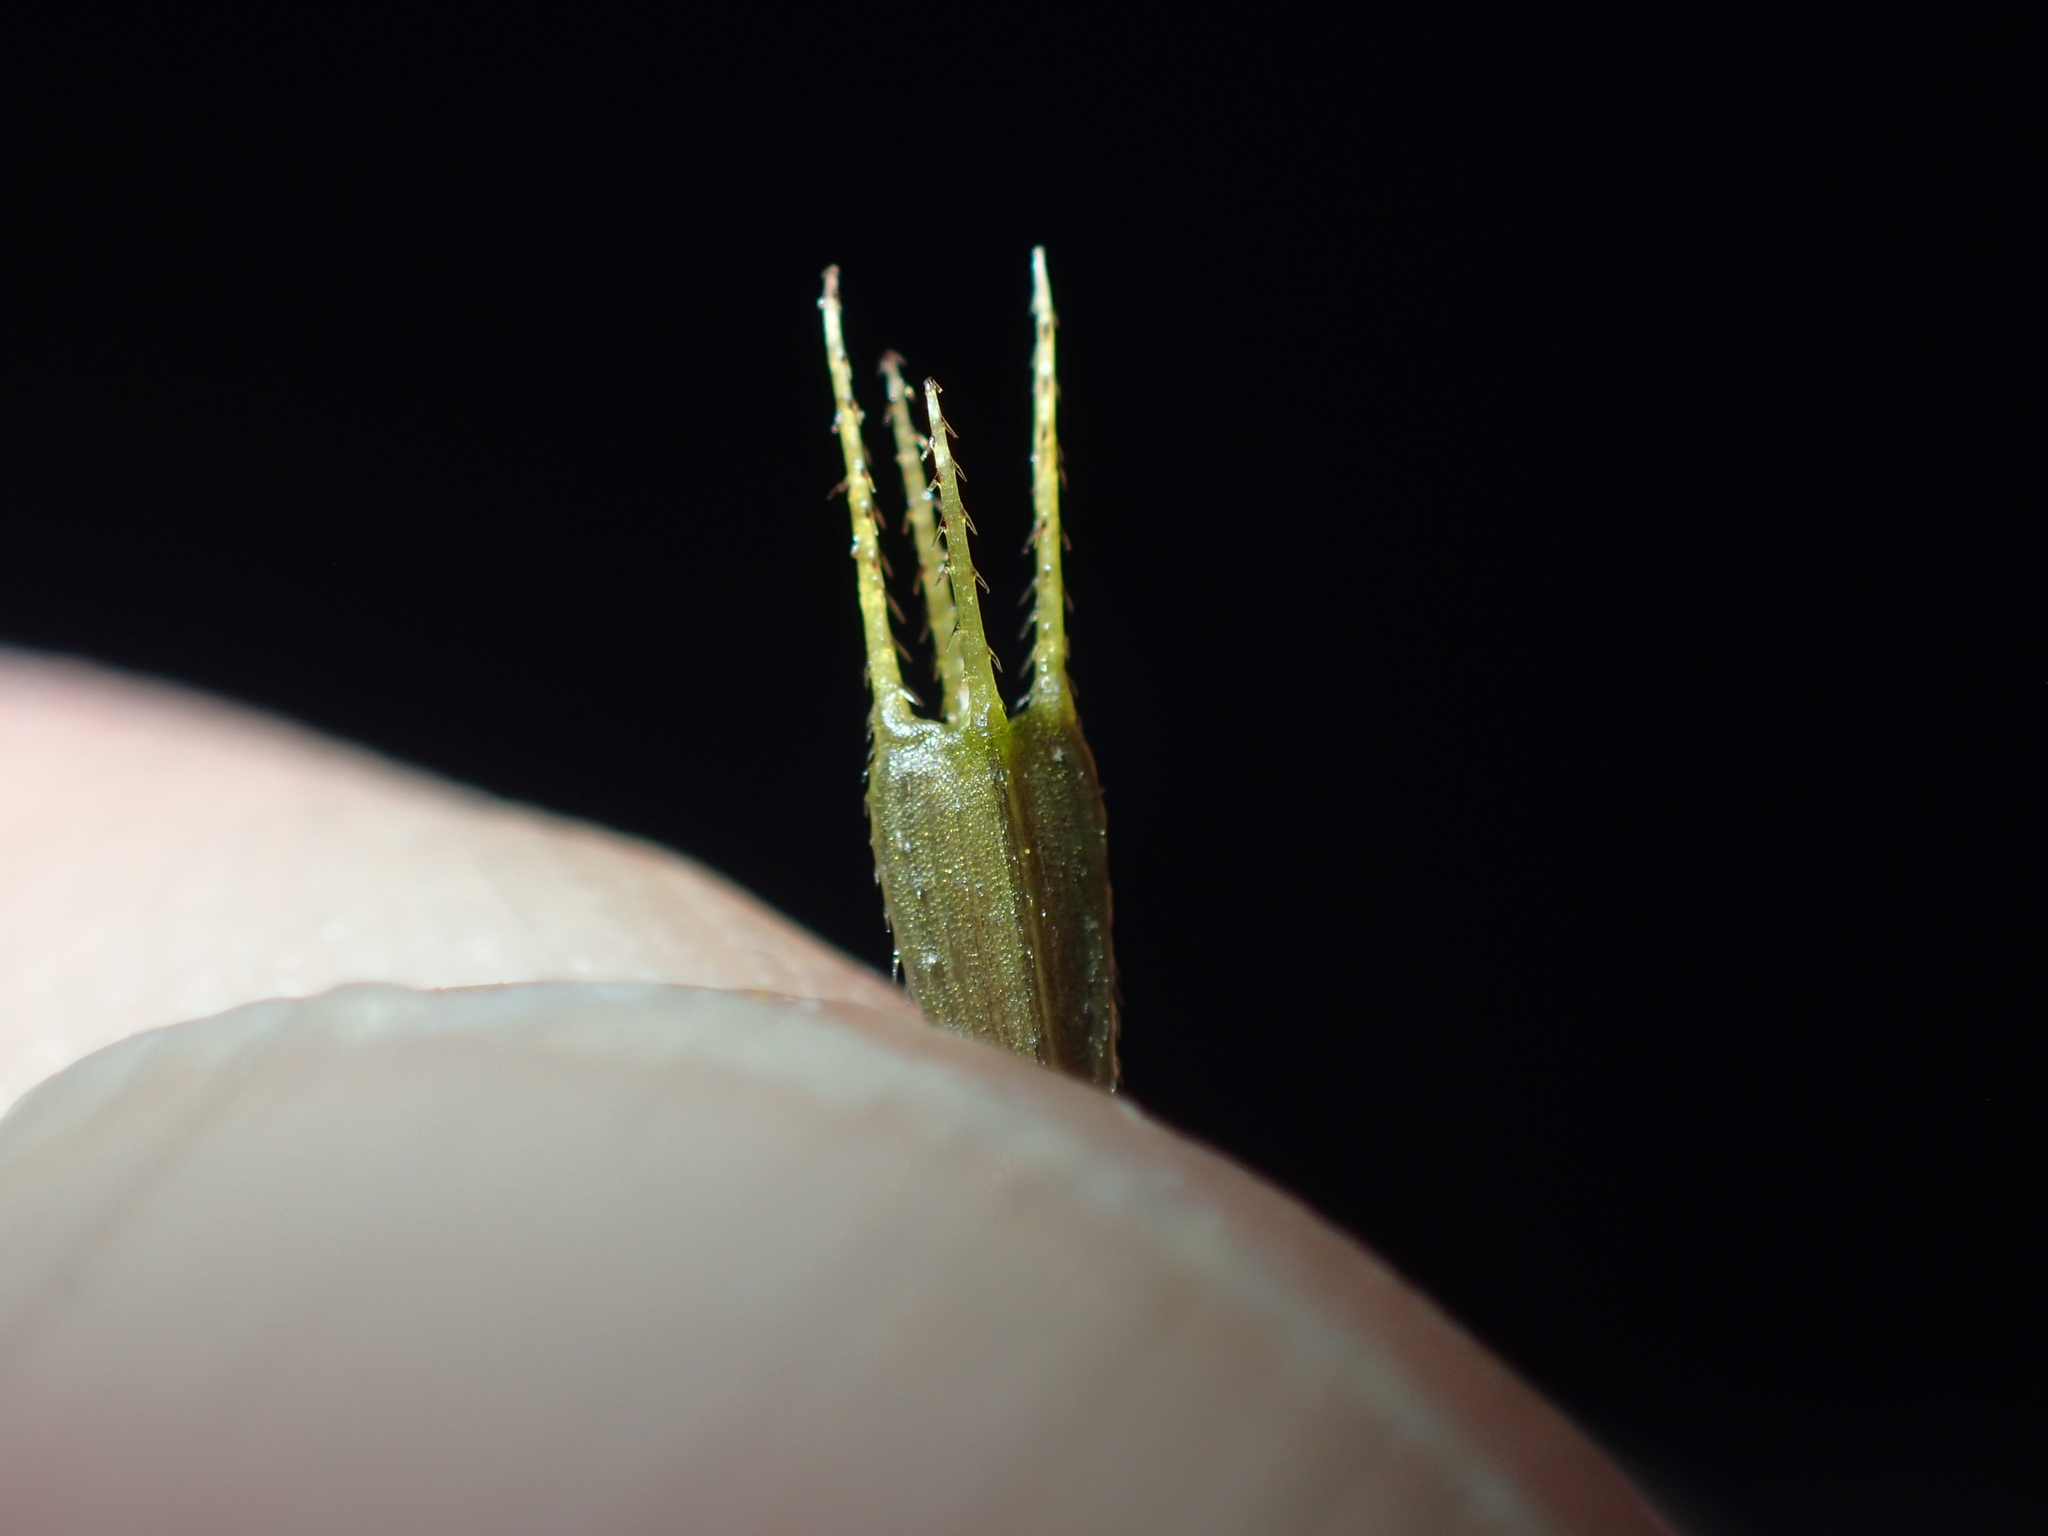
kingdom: Plantae
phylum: Tracheophyta
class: Magnoliopsida
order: Asterales
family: Asteraceae
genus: Bidens
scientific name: Bidens connata
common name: London bur-marigold
